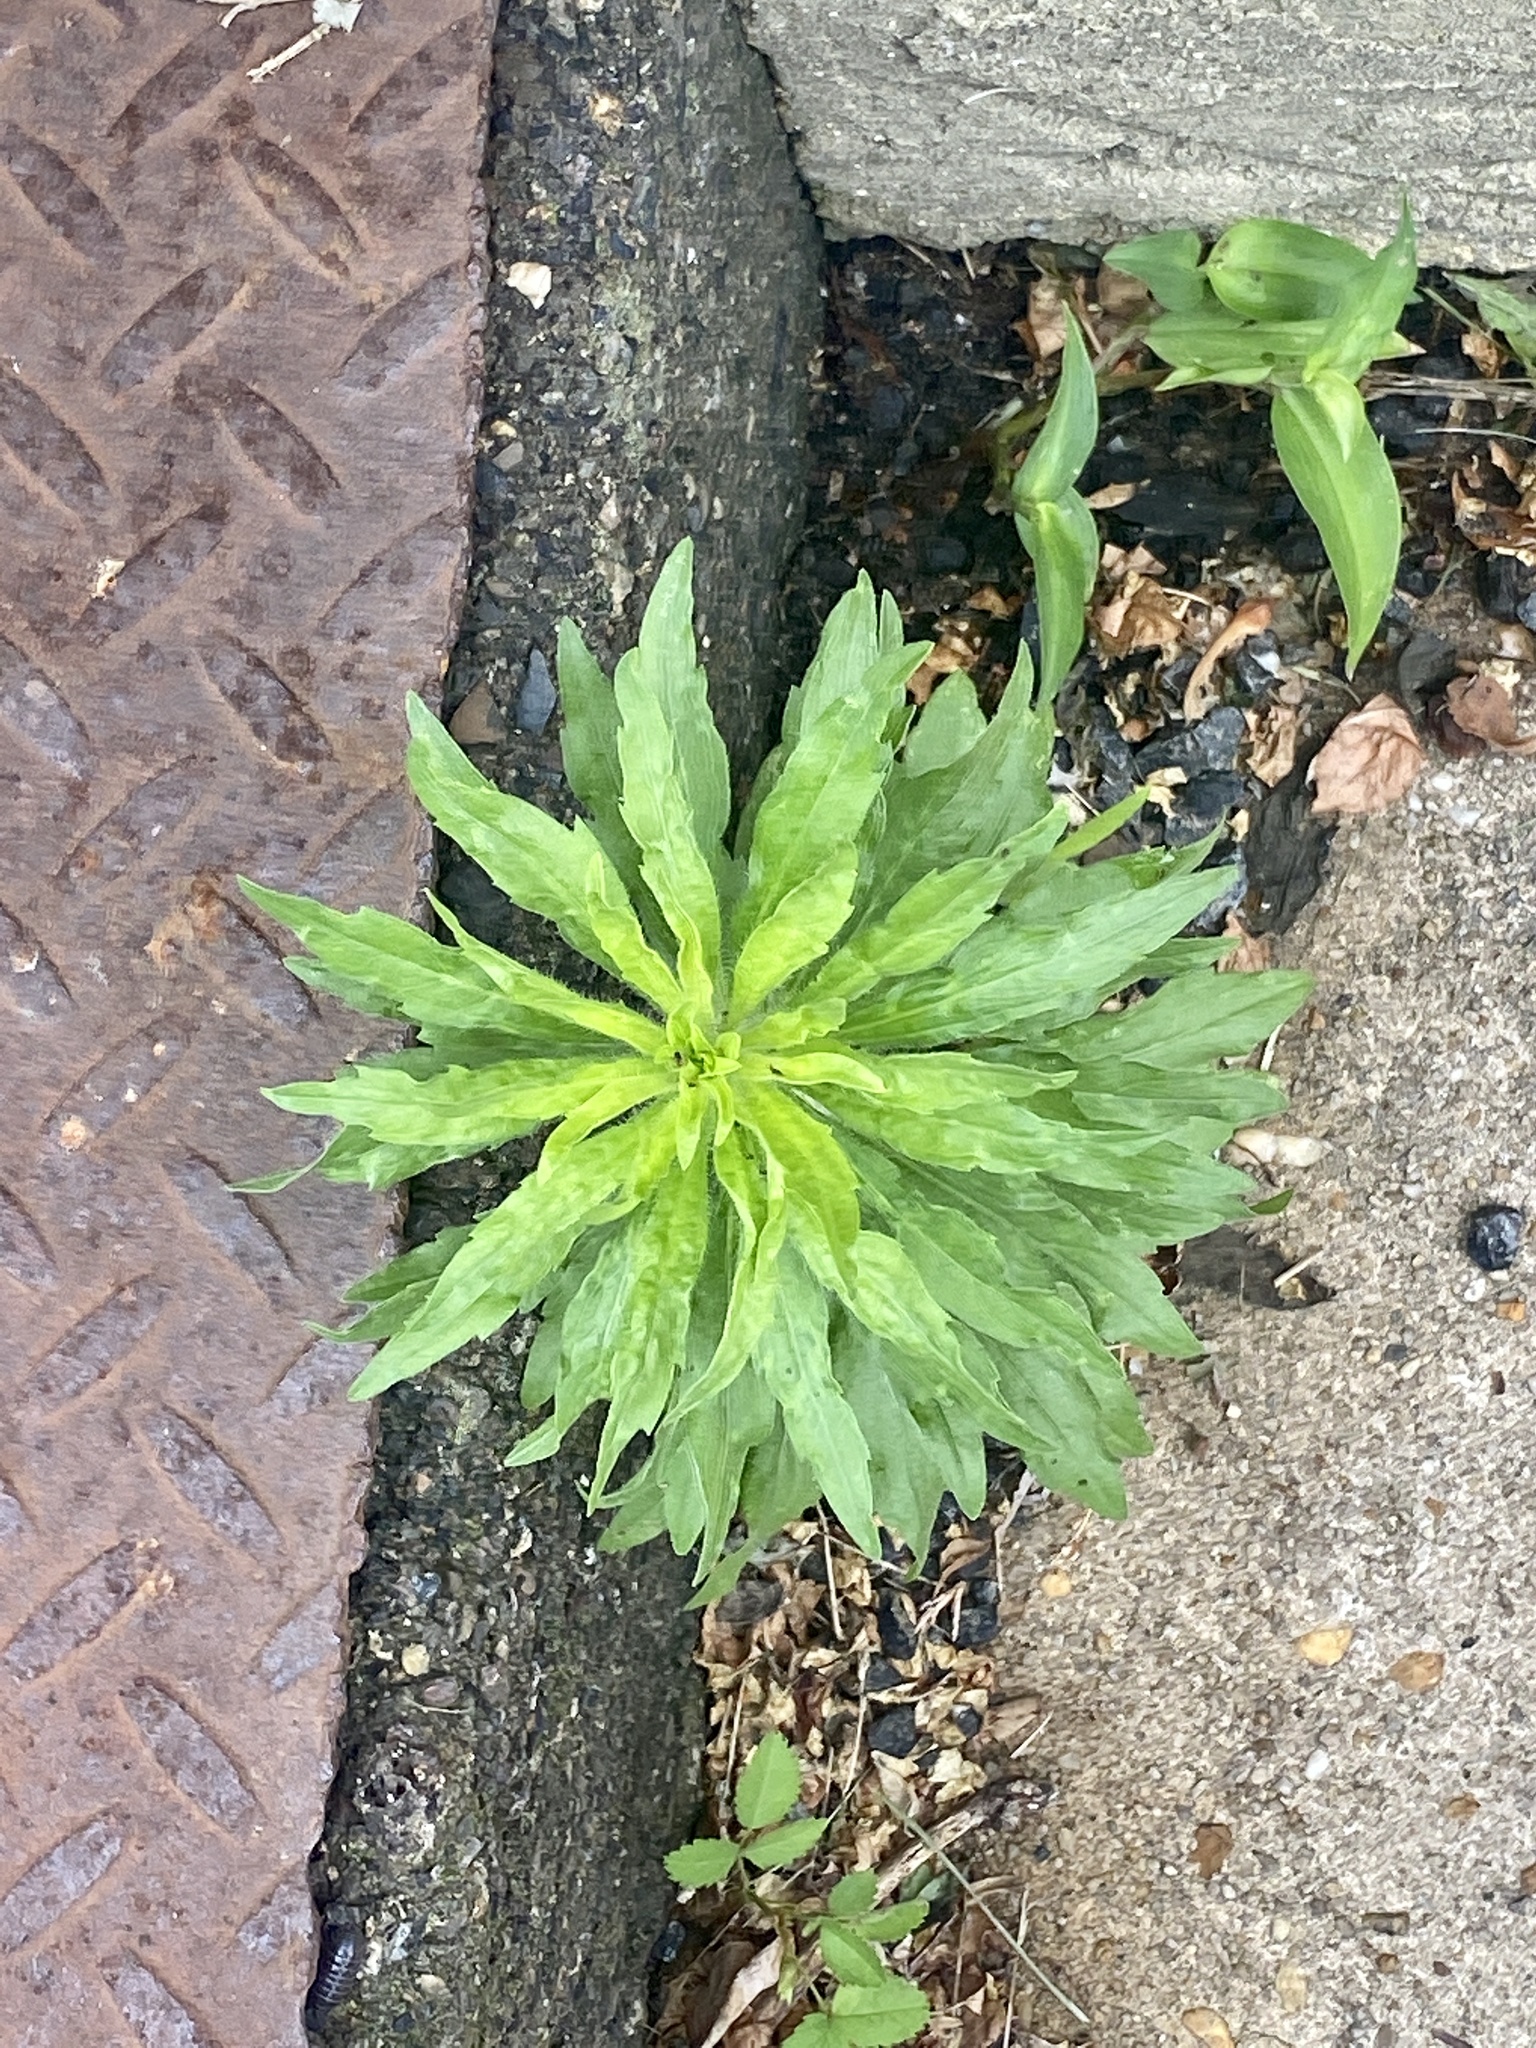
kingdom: Plantae
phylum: Tracheophyta
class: Magnoliopsida
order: Asterales
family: Asteraceae
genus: Erigeron
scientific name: Erigeron canadensis
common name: Canadian fleabane
